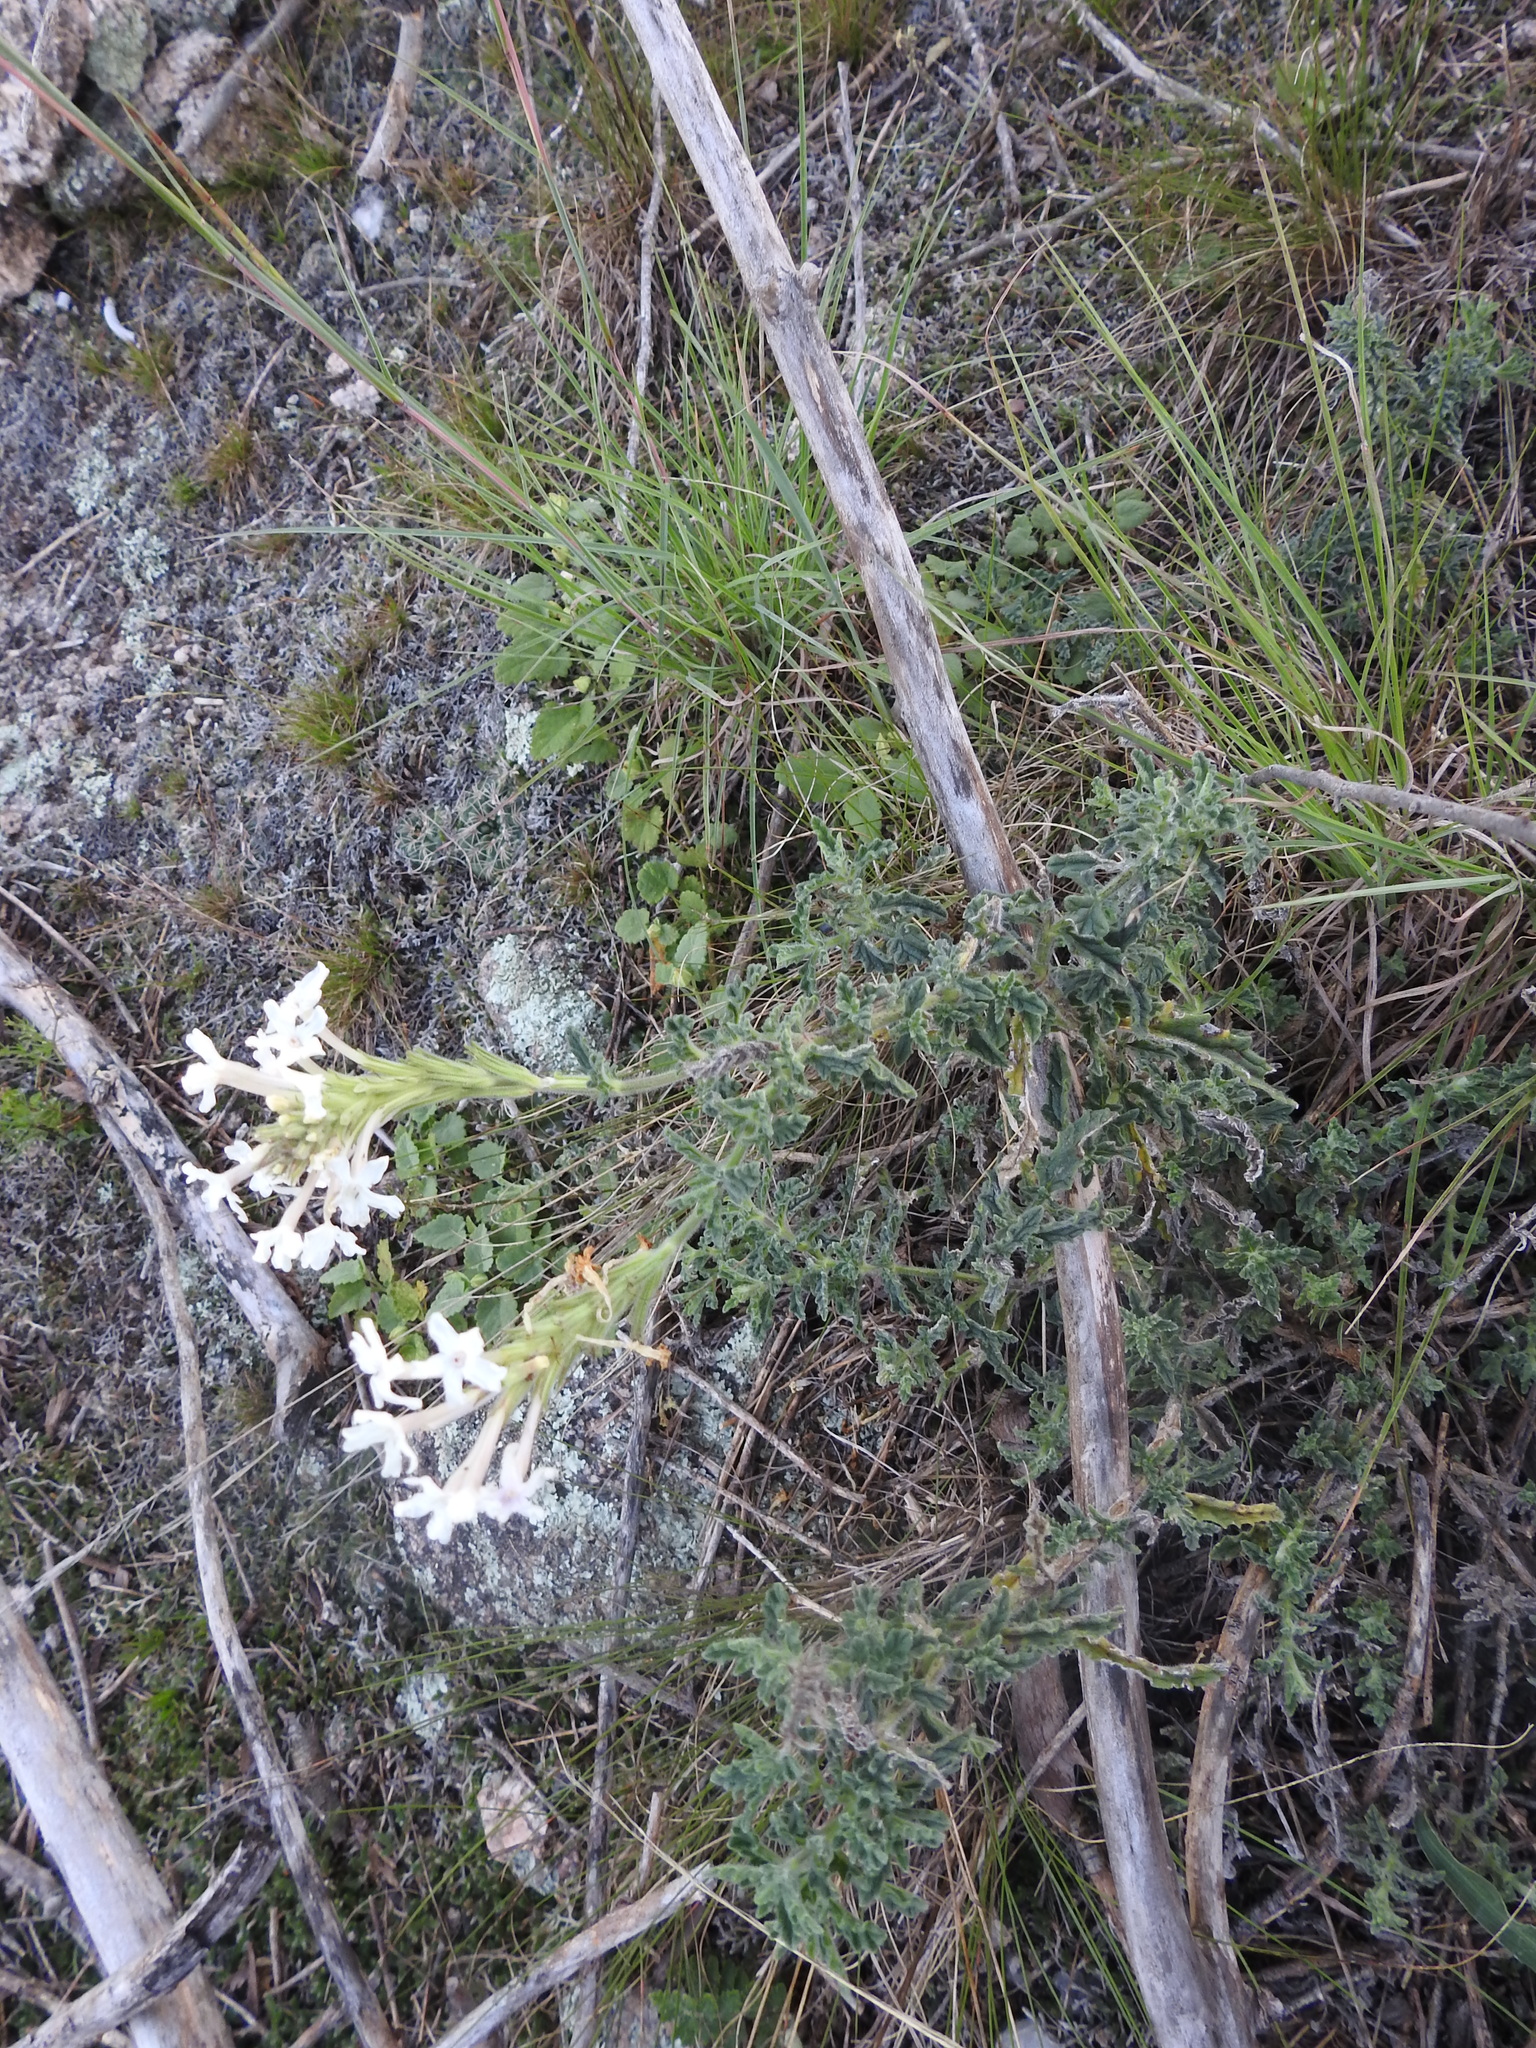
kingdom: Plantae
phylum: Tracheophyta
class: Magnoliopsida
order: Lamiales
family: Verbenaceae
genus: Verbena
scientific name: Verbena platensis
